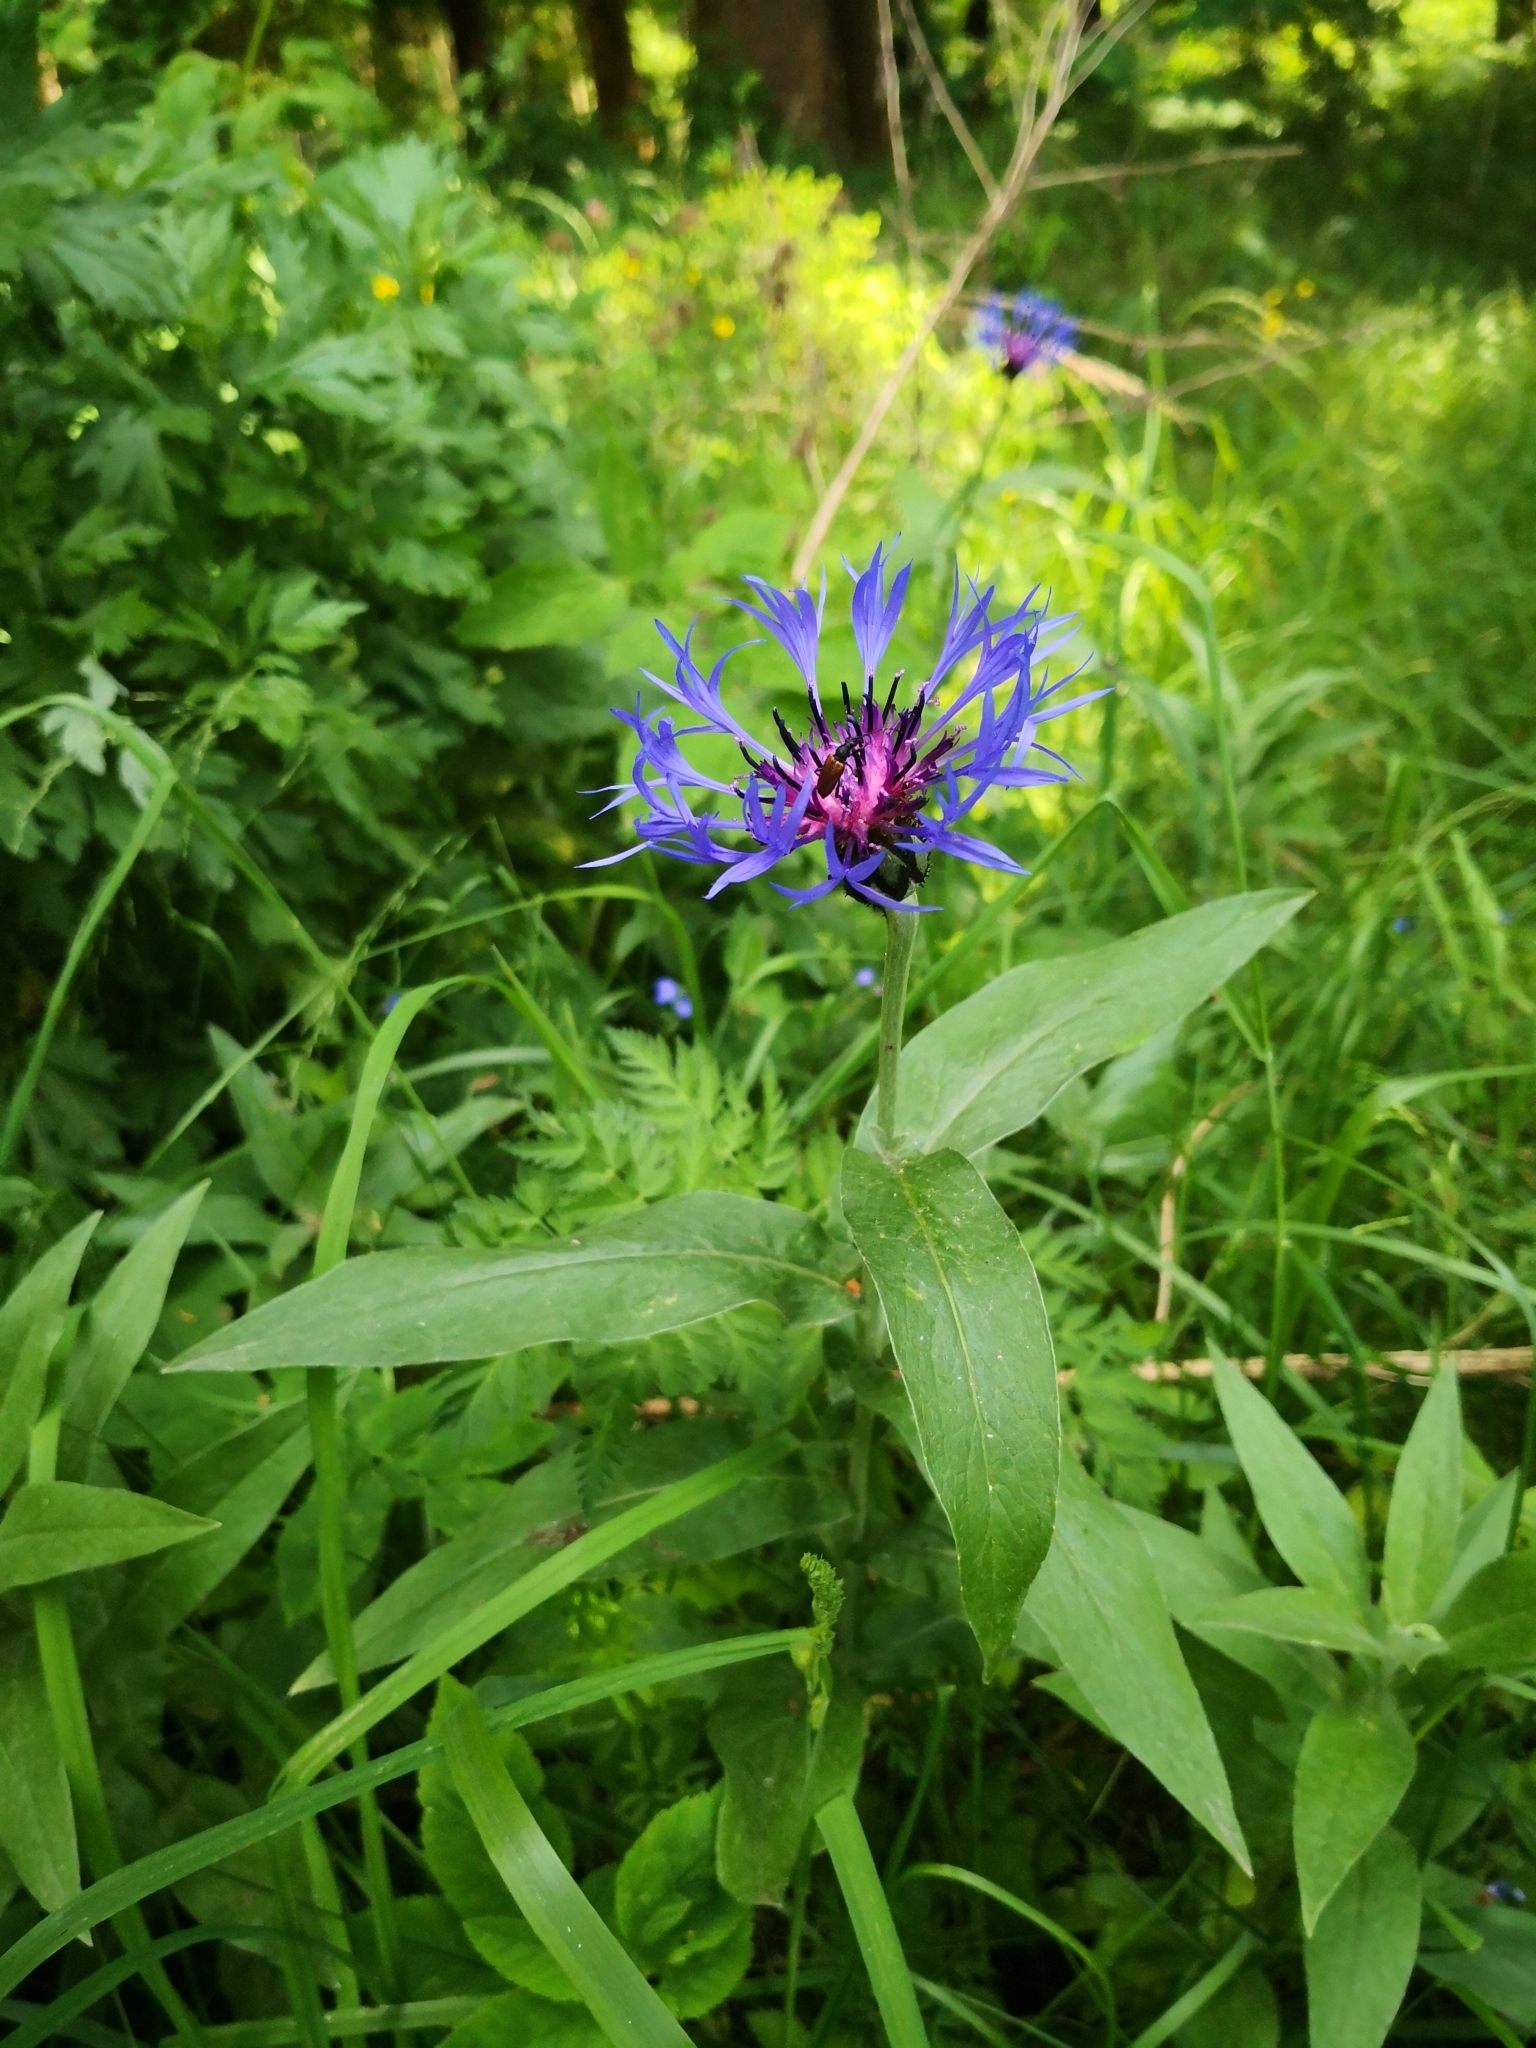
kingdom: Plantae
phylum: Tracheophyta
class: Magnoliopsida
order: Asterales
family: Asteraceae
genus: Centaurea
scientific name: Centaurea montana
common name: Perennial cornflower
